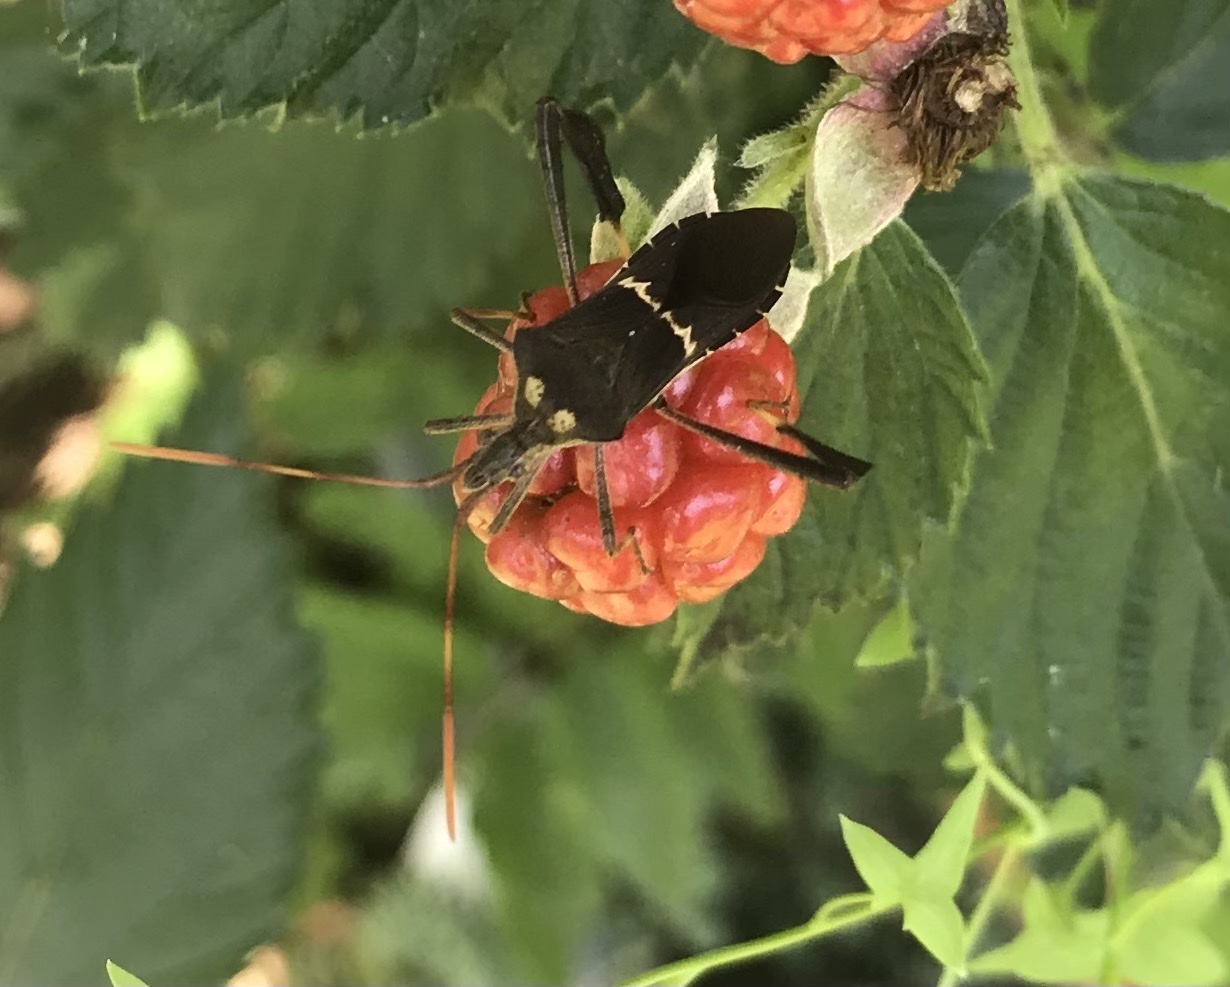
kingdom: Animalia
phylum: Arthropoda
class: Insecta
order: Hemiptera
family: Coreidae
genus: Leptoglossus
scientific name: Leptoglossus zonatus
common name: Large-legged bug
